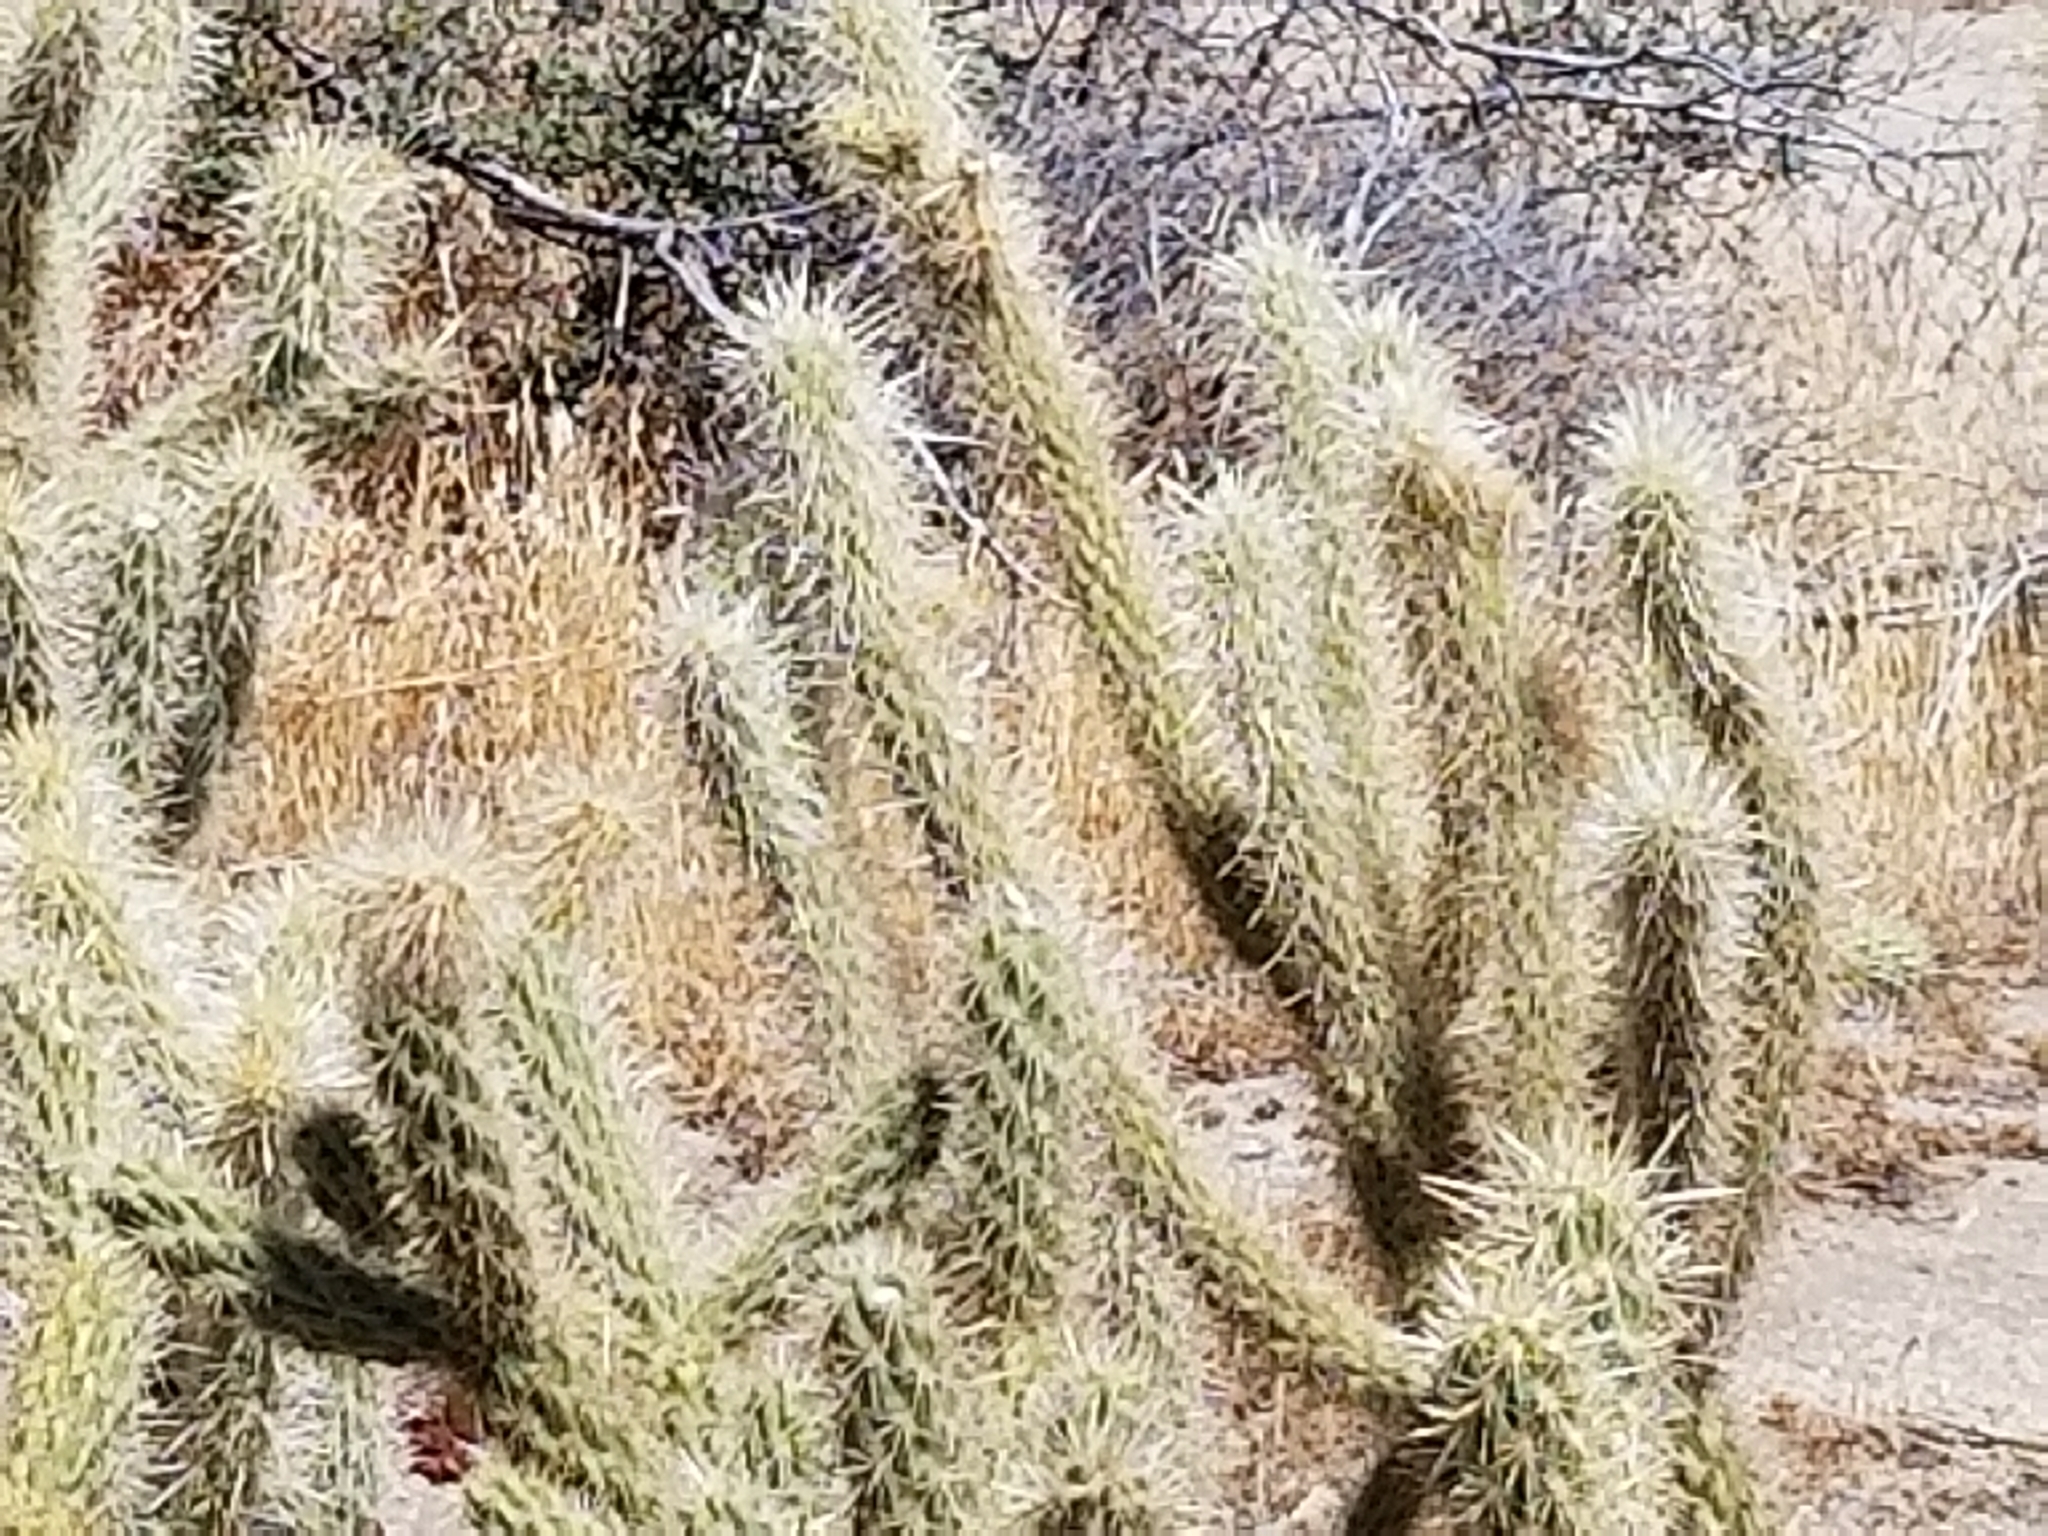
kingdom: Plantae
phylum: Tracheophyta
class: Magnoliopsida
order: Caryophyllales
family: Cactaceae
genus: Cylindropuntia
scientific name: Cylindropuntia ganderi
